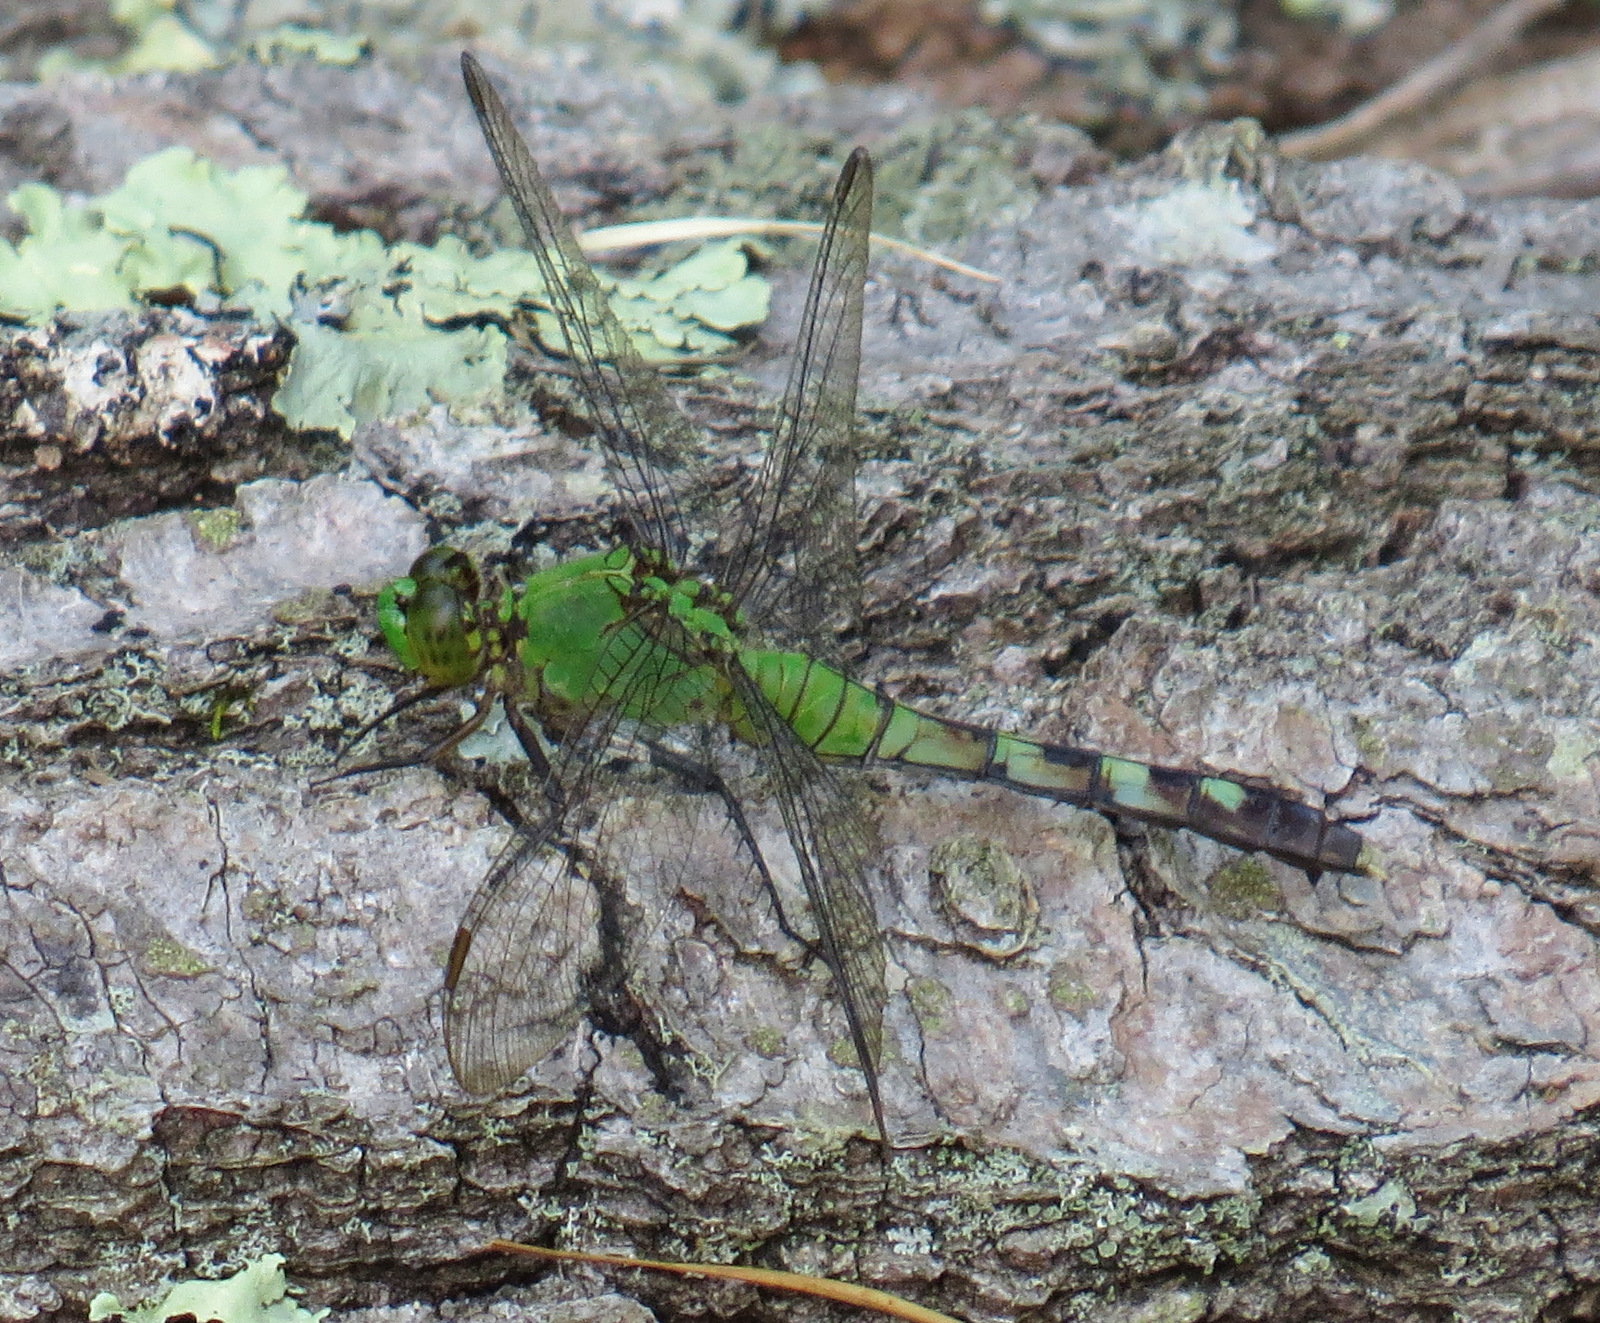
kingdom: Animalia
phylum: Arthropoda
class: Insecta
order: Odonata
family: Libellulidae
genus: Erythemis
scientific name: Erythemis simplicicollis
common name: Eastern pondhawk
